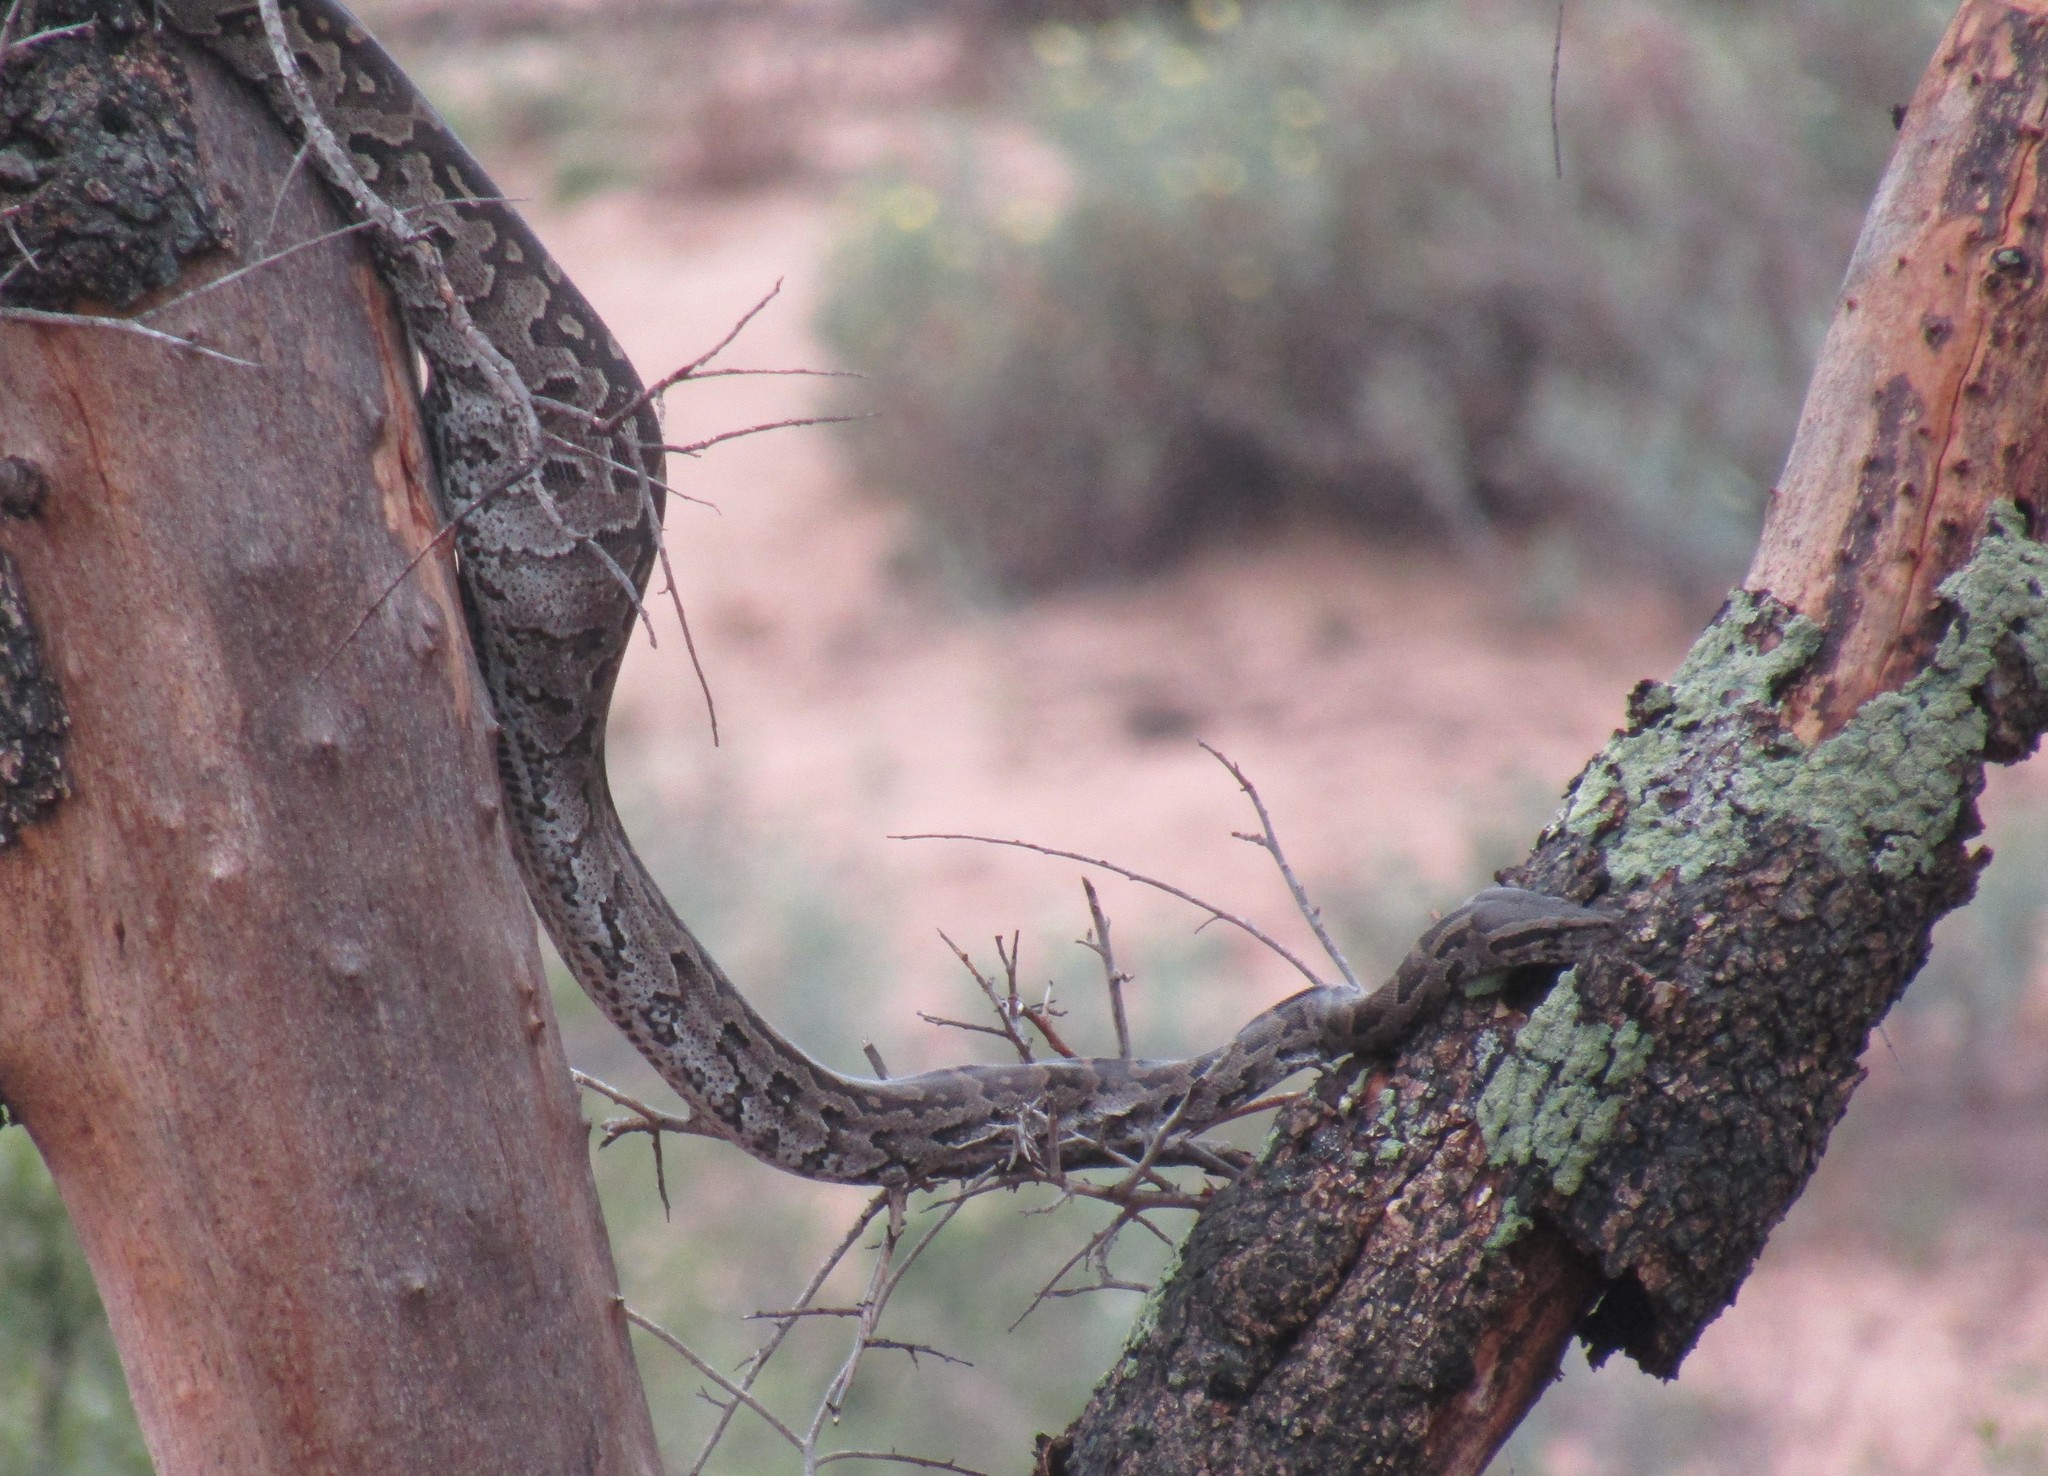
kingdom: Animalia
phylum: Chordata
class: Squamata
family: Pythonidae
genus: Python
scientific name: Python natalensis
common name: Southern african rock python
